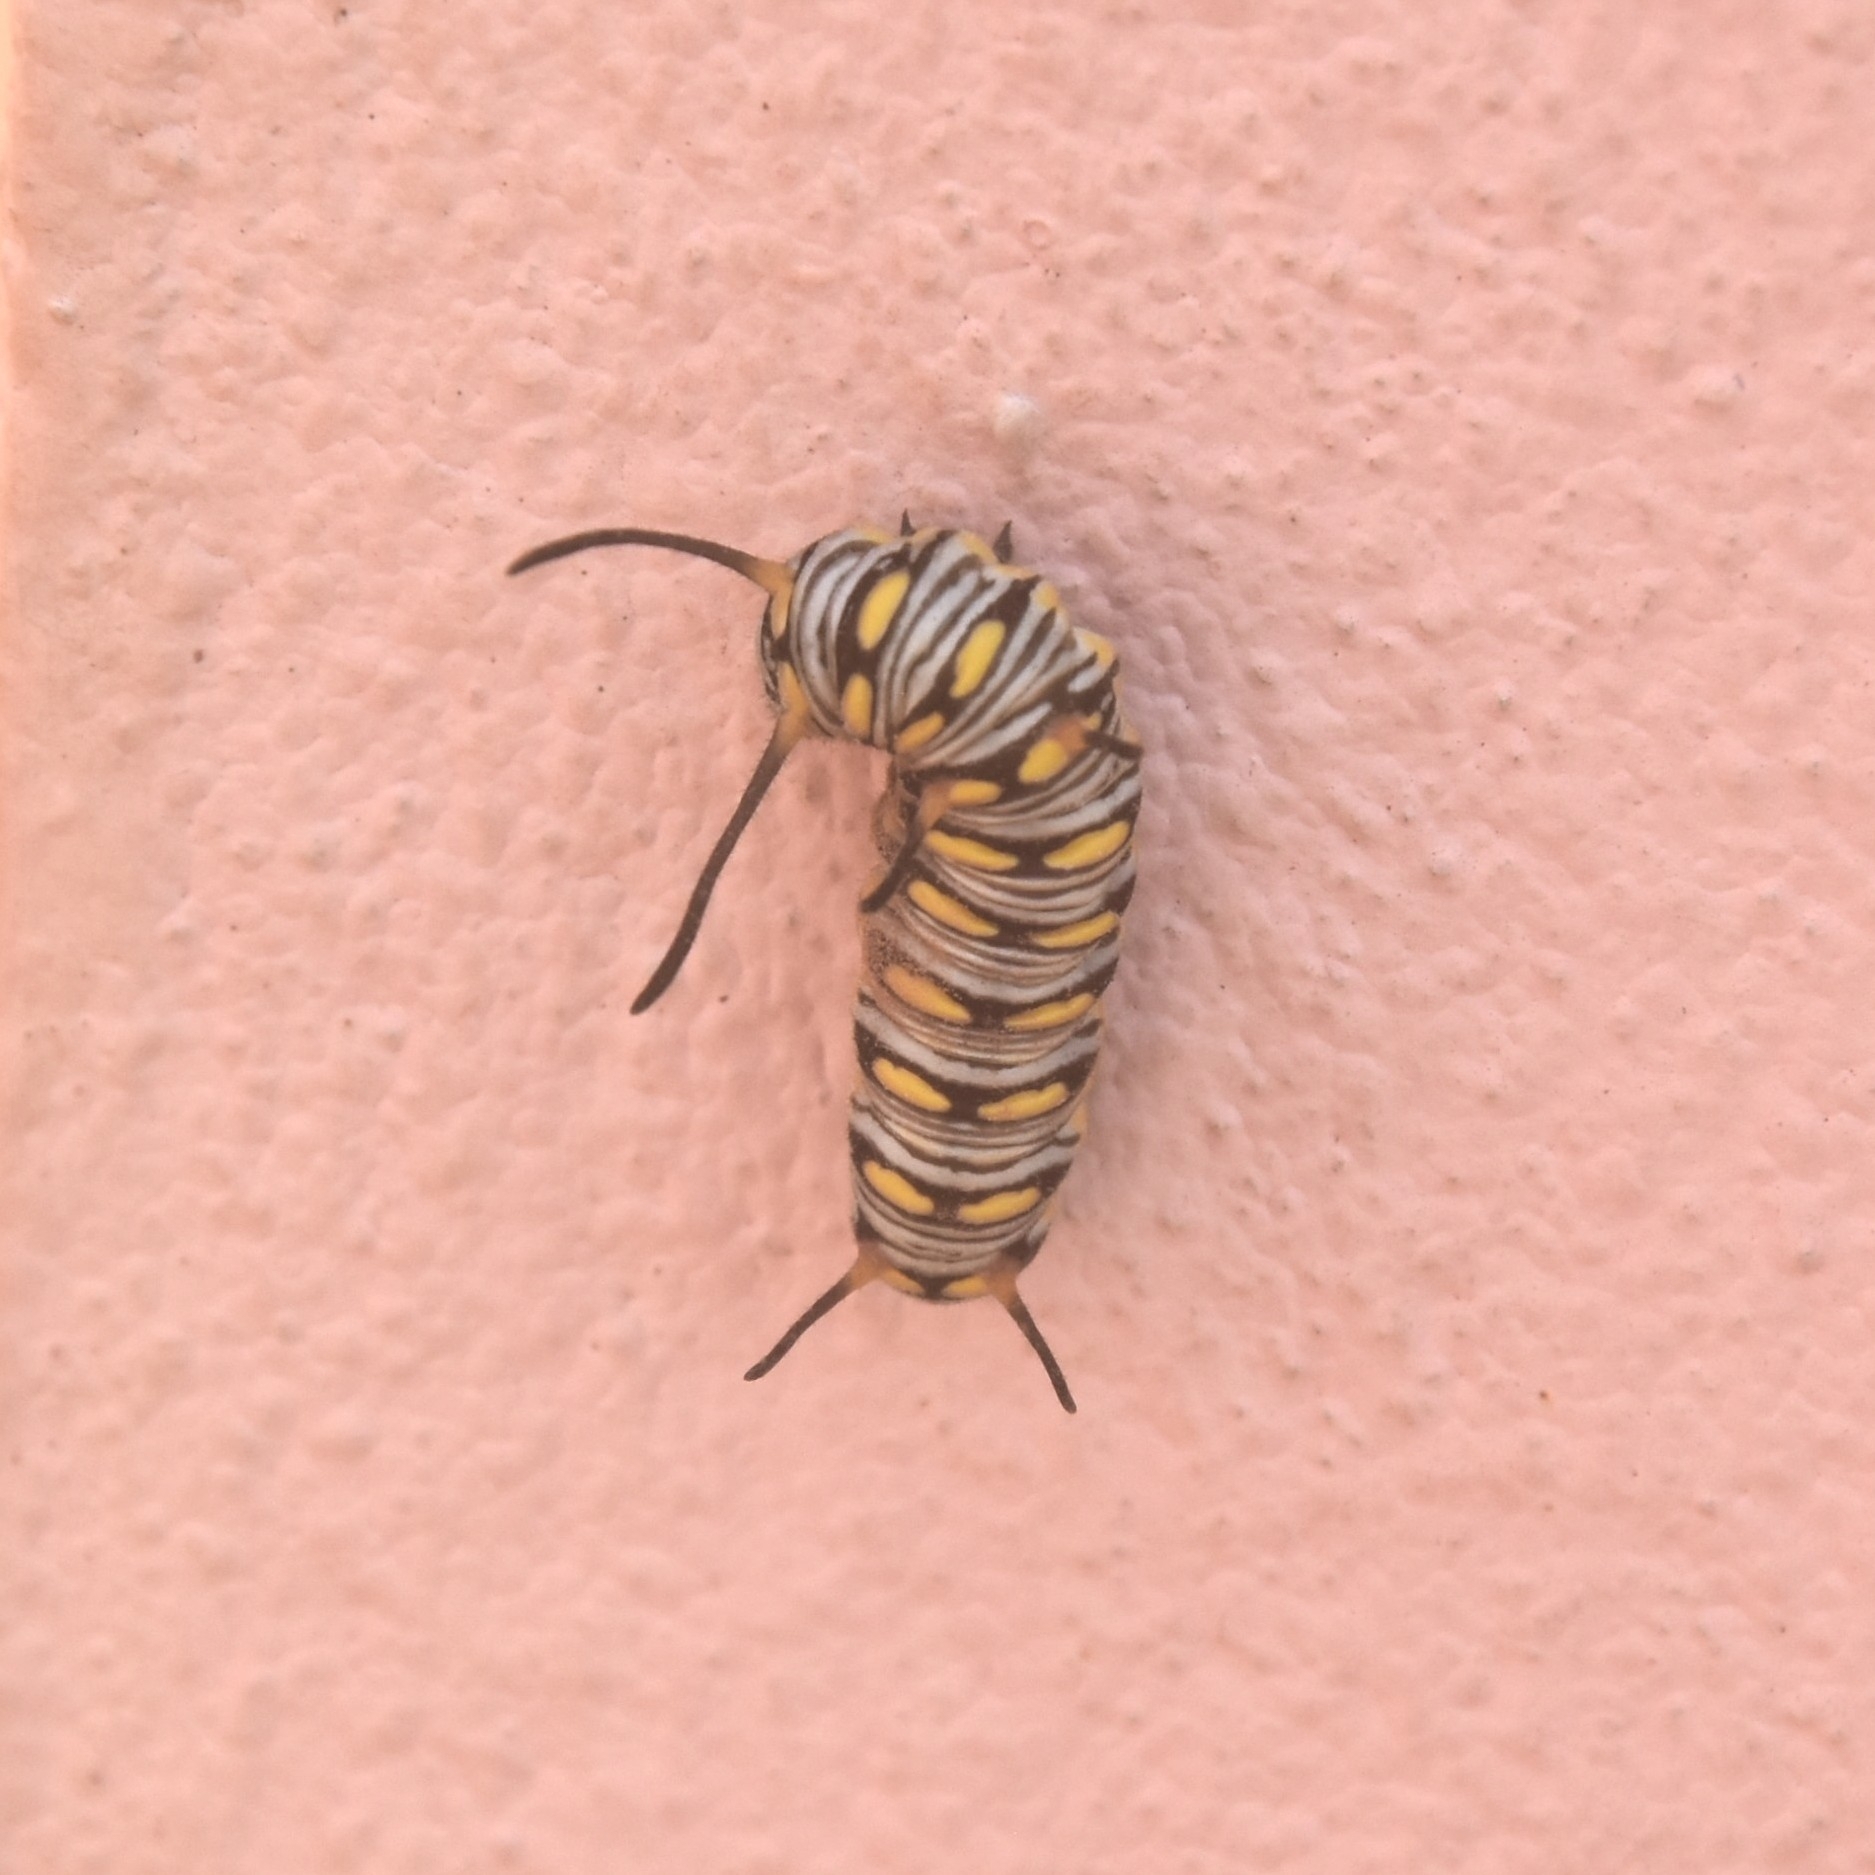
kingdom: Animalia
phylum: Arthropoda
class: Insecta
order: Lepidoptera
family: Nymphalidae
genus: Danaus
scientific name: Danaus chrysippus
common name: Plain tiger
